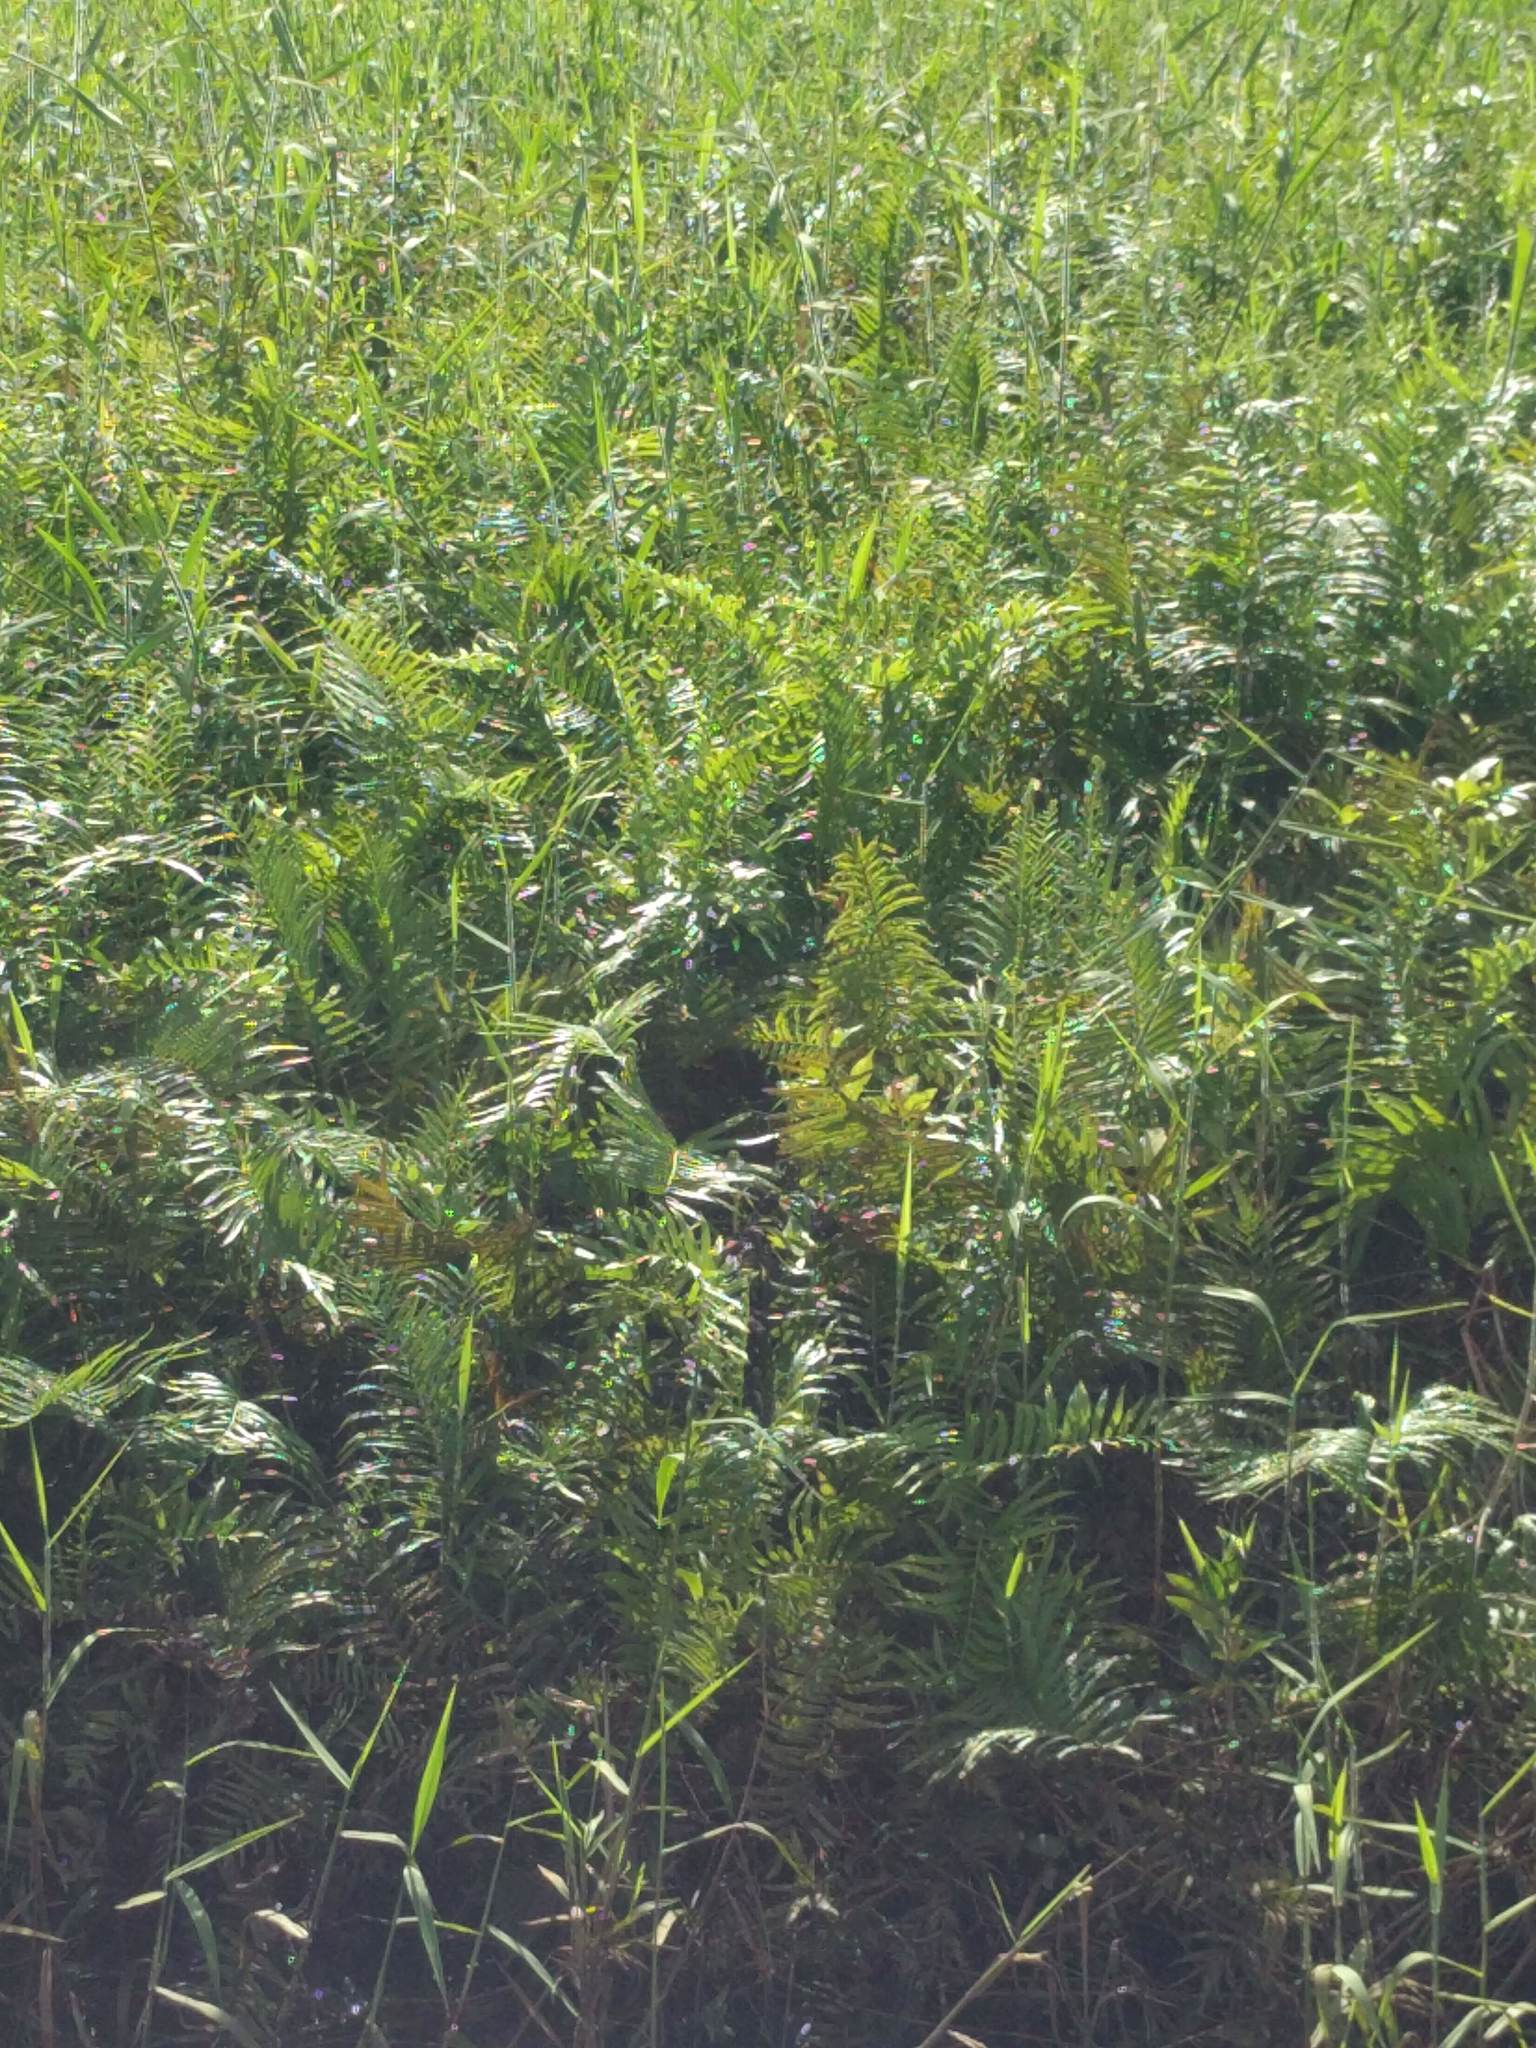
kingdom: Plantae
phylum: Tracheophyta
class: Polypodiopsida
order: Polypodiales
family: Thelypteridaceae
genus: Cyclosorus
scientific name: Cyclosorus interruptus
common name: Neke fern
